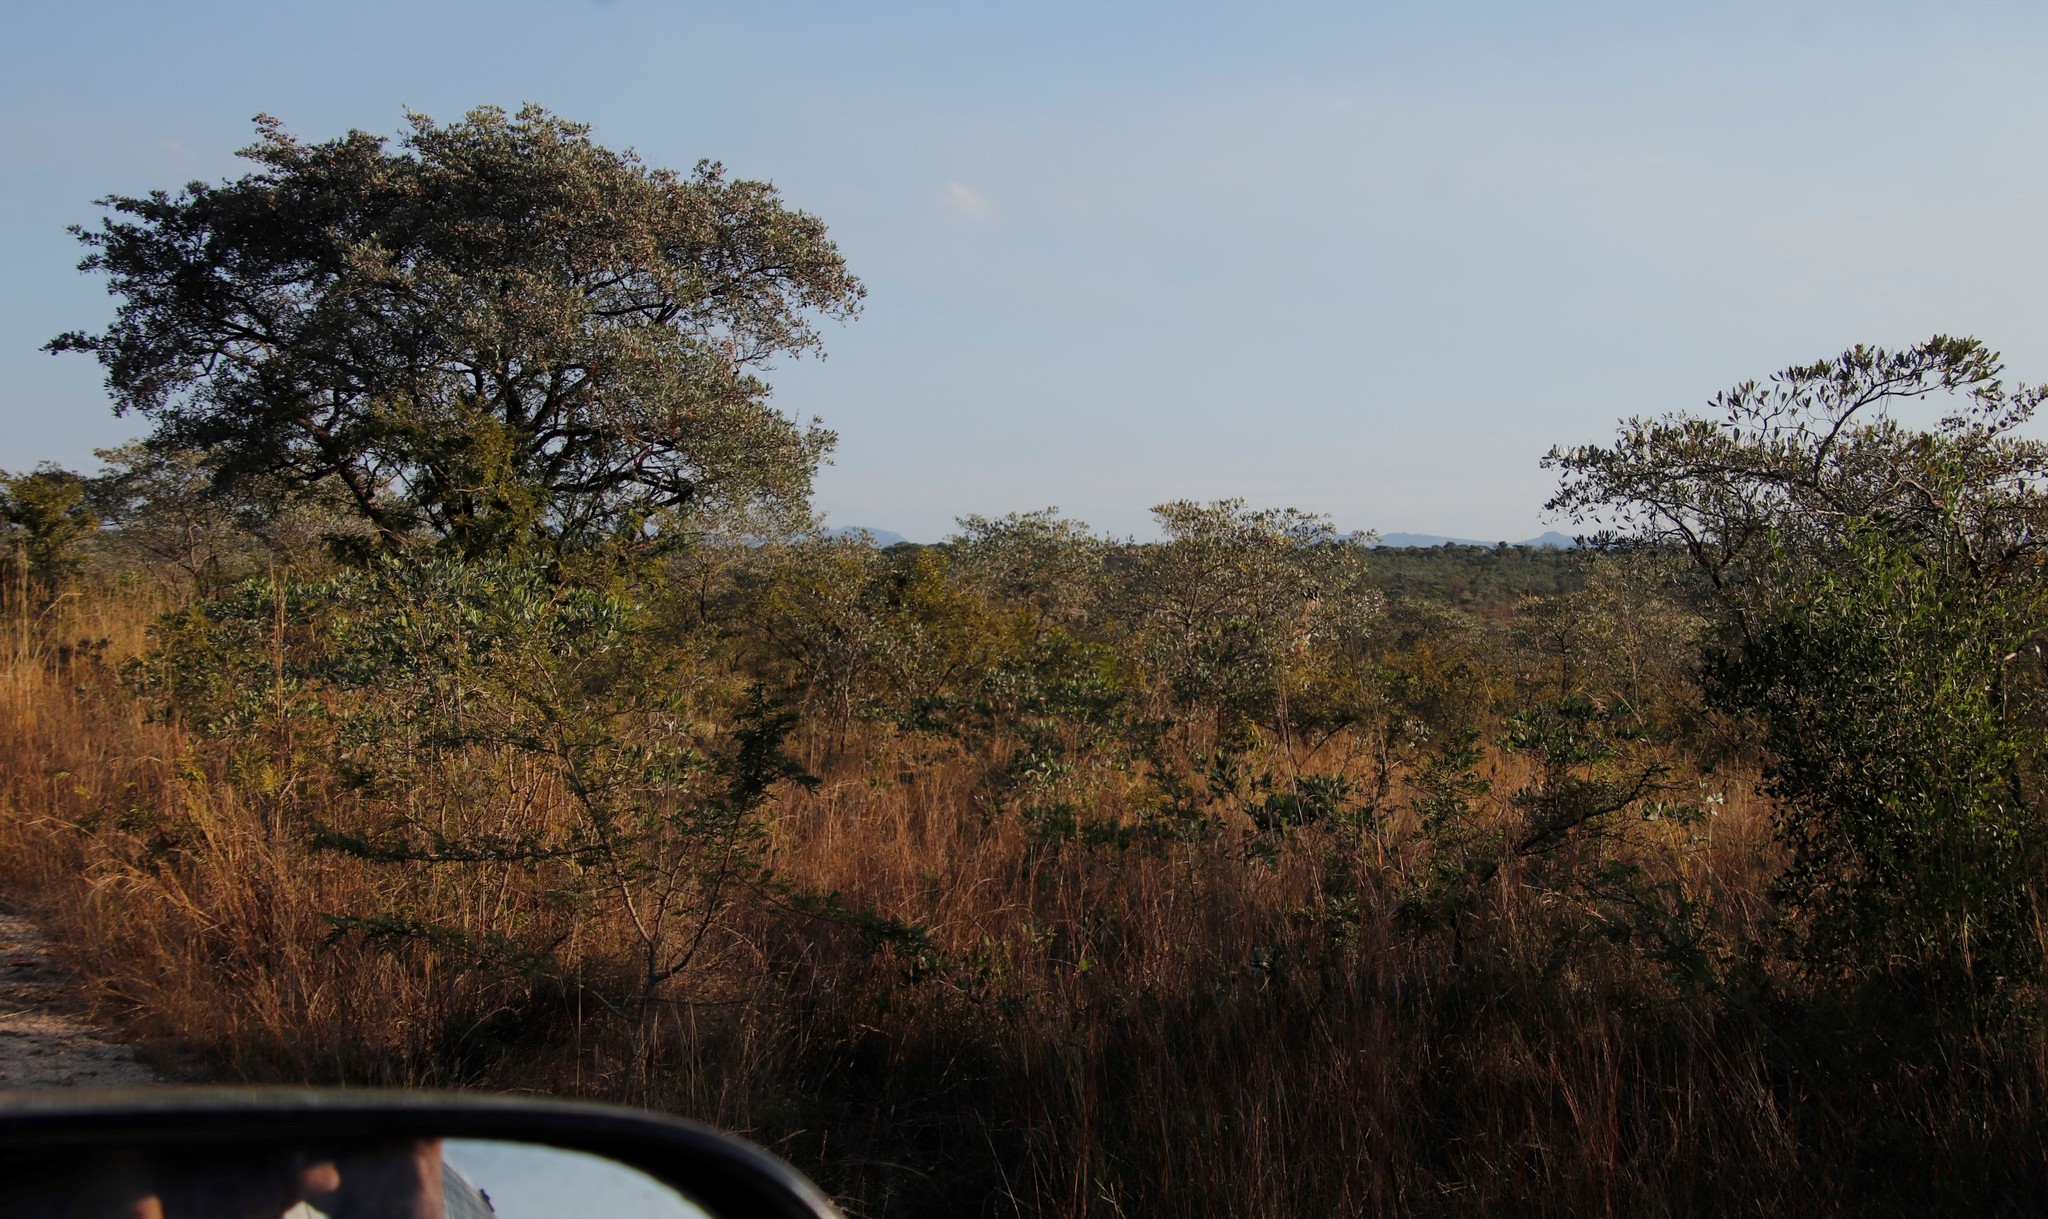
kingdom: Plantae
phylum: Tracheophyta
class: Magnoliopsida
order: Myrtales
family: Combretaceae
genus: Terminalia
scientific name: Terminalia sericea
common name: Clusterleaf
